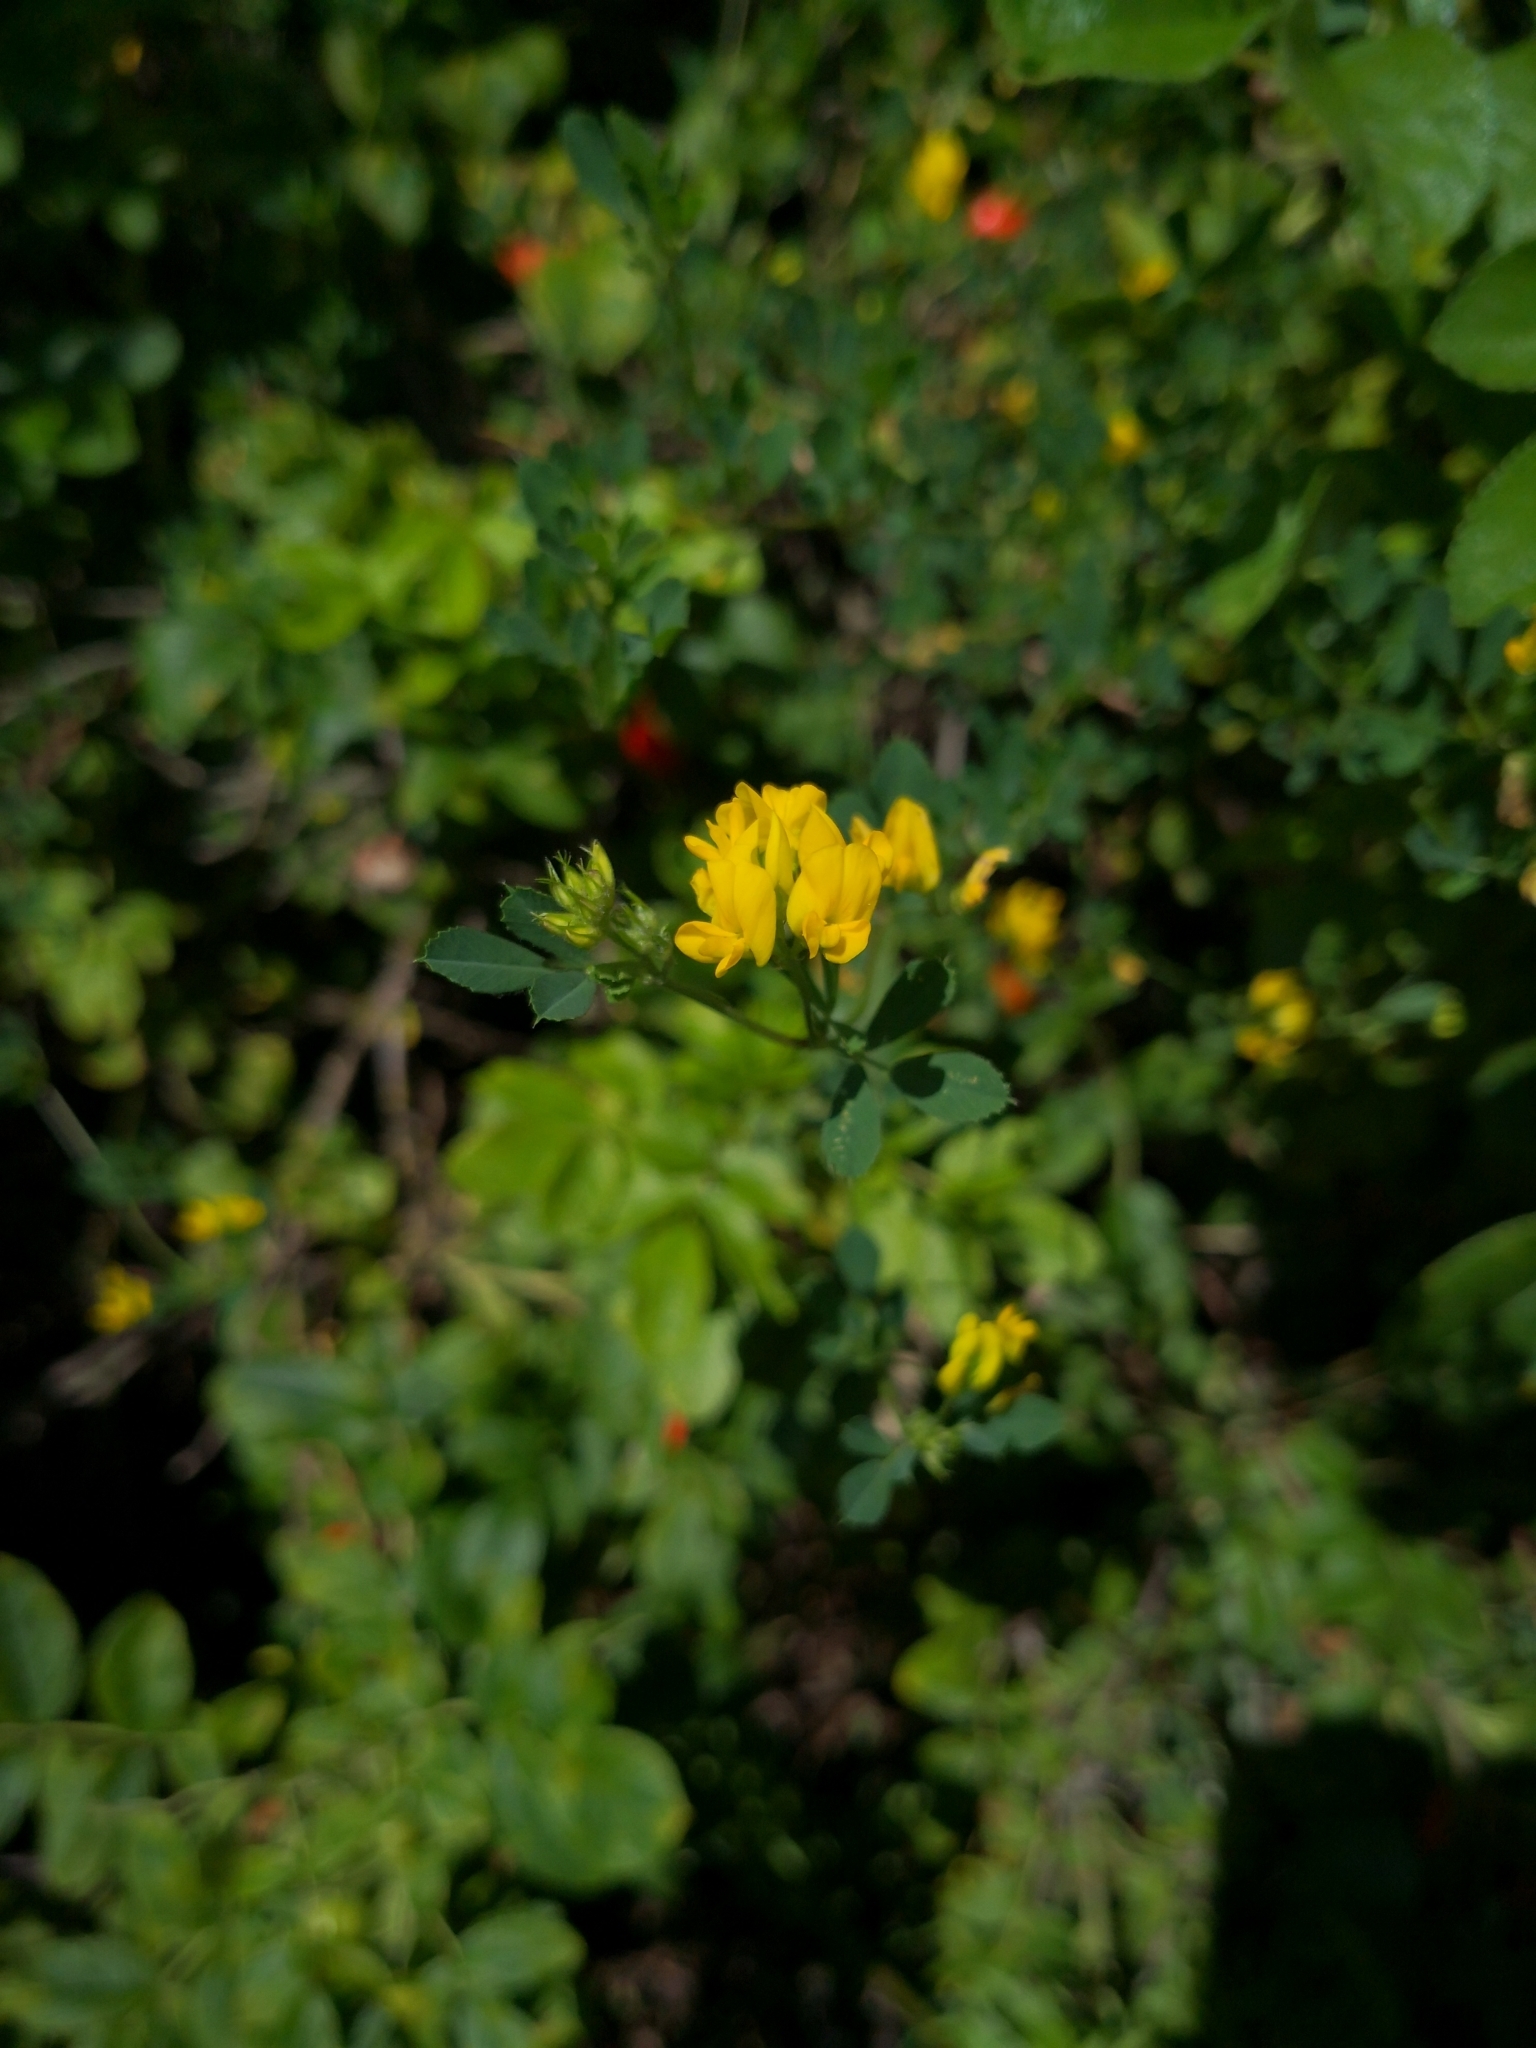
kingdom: Plantae
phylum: Tracheophyta
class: Magnoliopsida
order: Fabales
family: Fabaceae
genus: Medicago
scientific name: Medicago falcata
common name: Sickle medick
